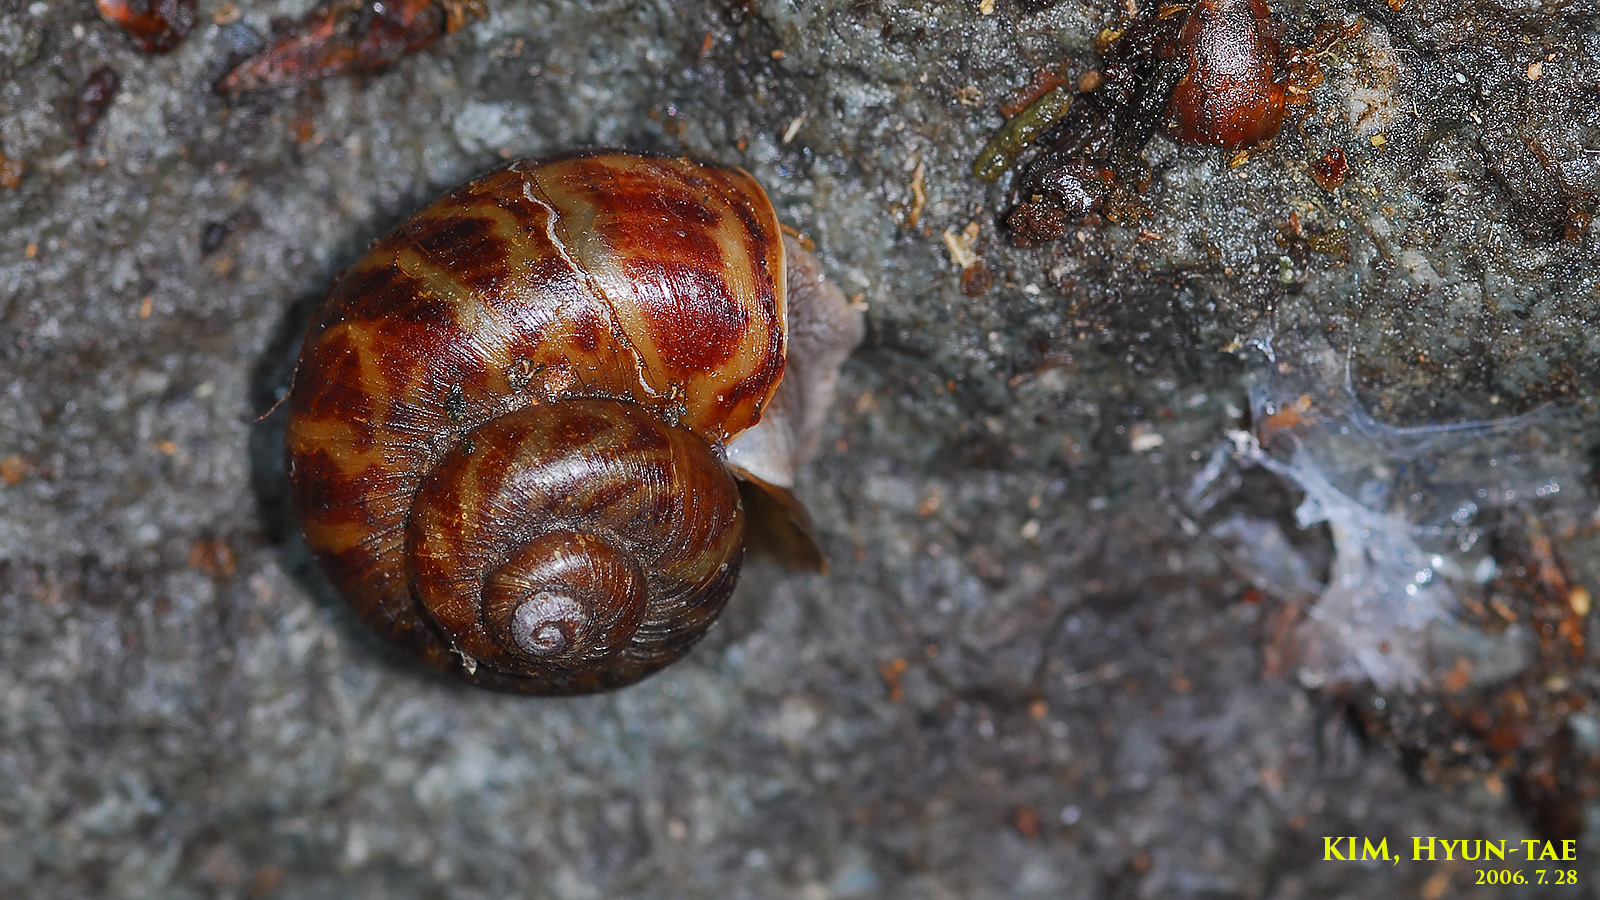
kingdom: Animalia
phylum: Mollusca
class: Gastropoda
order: Architaenioglossa
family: Cyclophoridae
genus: Cyclophorus
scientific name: Cyclophorus herklotsi
